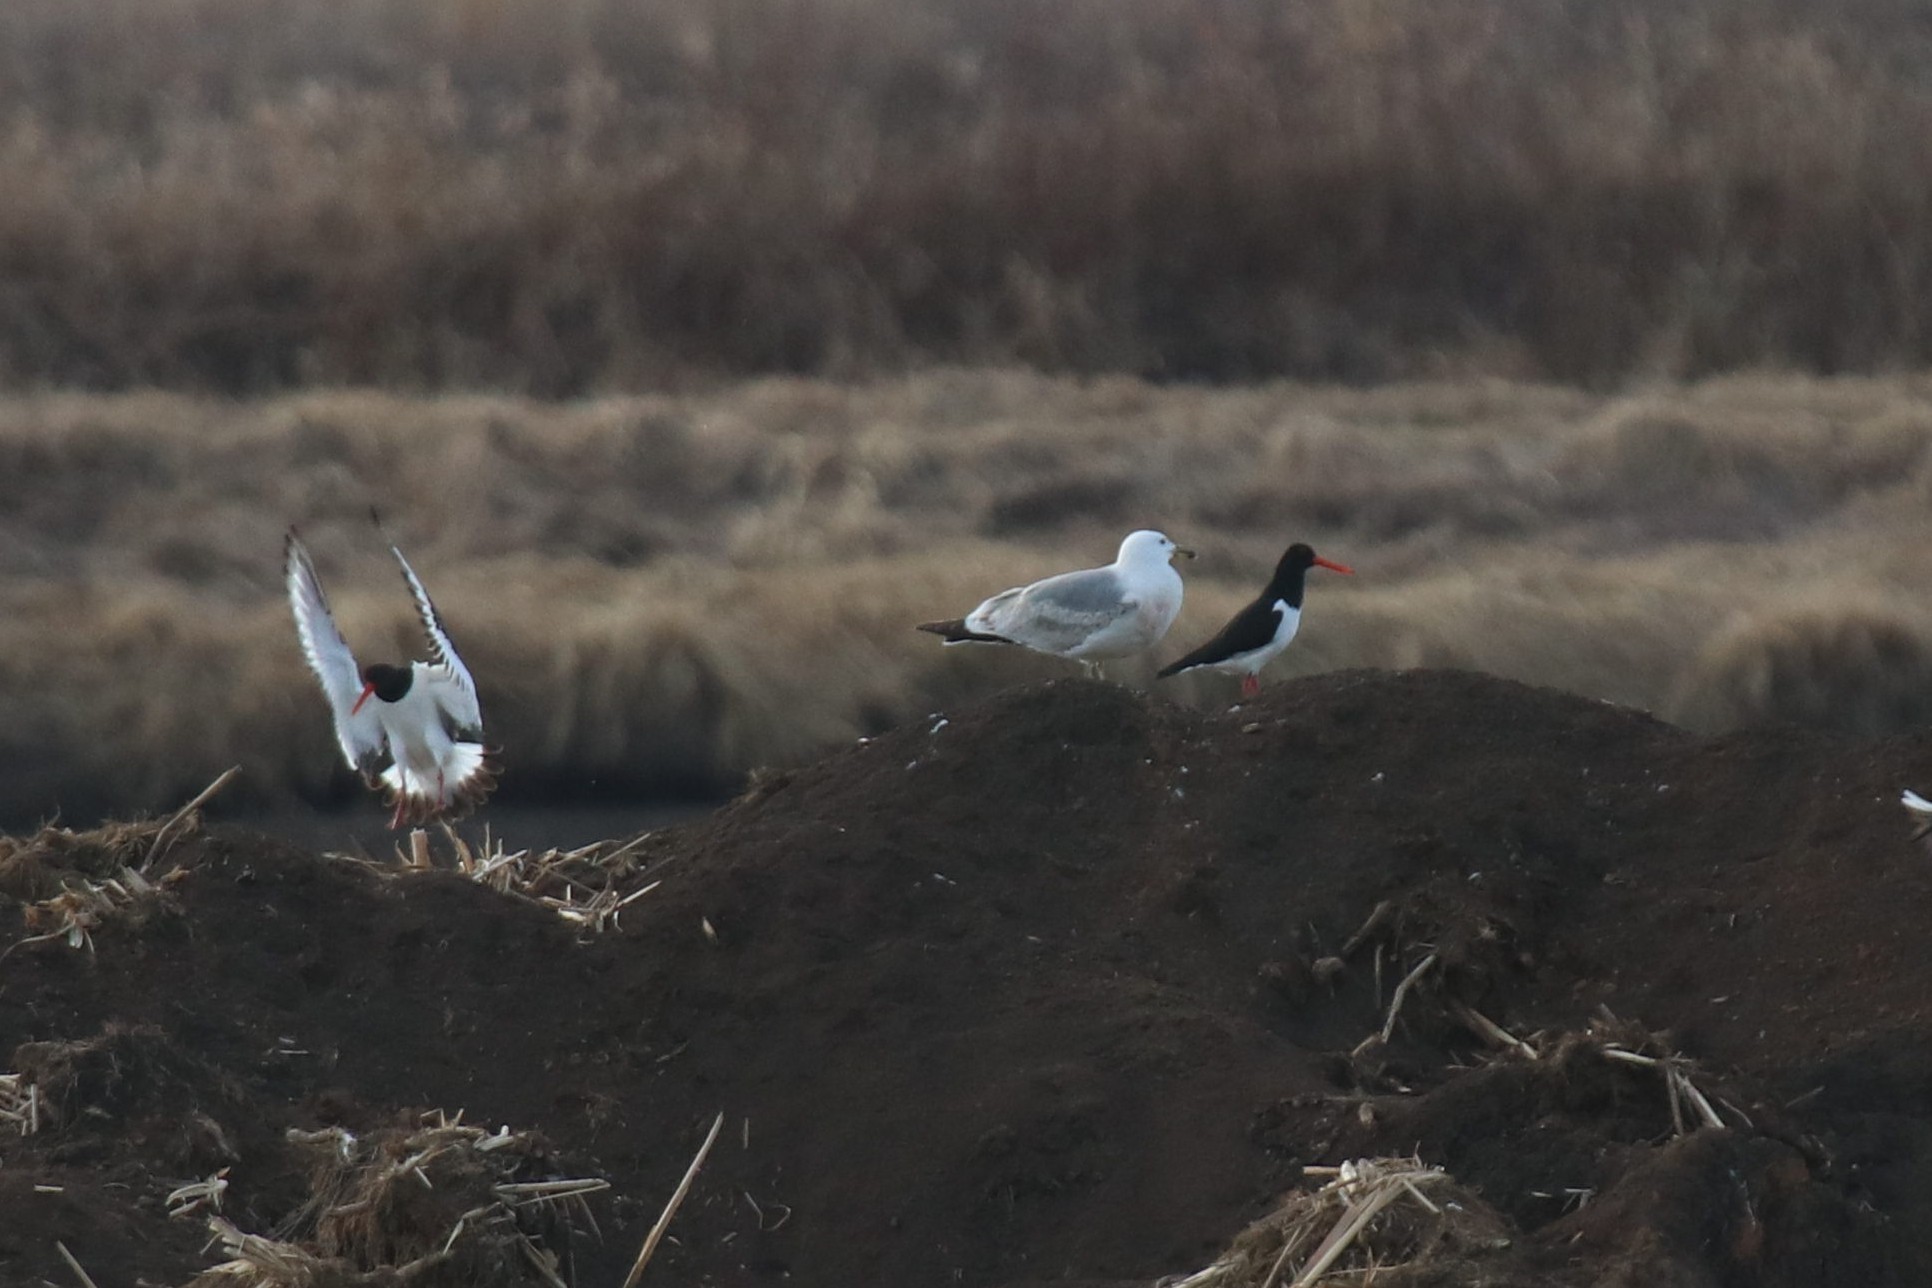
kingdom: Animalia
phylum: Chordata
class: Aves
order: Charadriiformes
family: Haematopodidae
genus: Haematopus
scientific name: Haematopus ostralegus
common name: Eurasian oystercatcher
